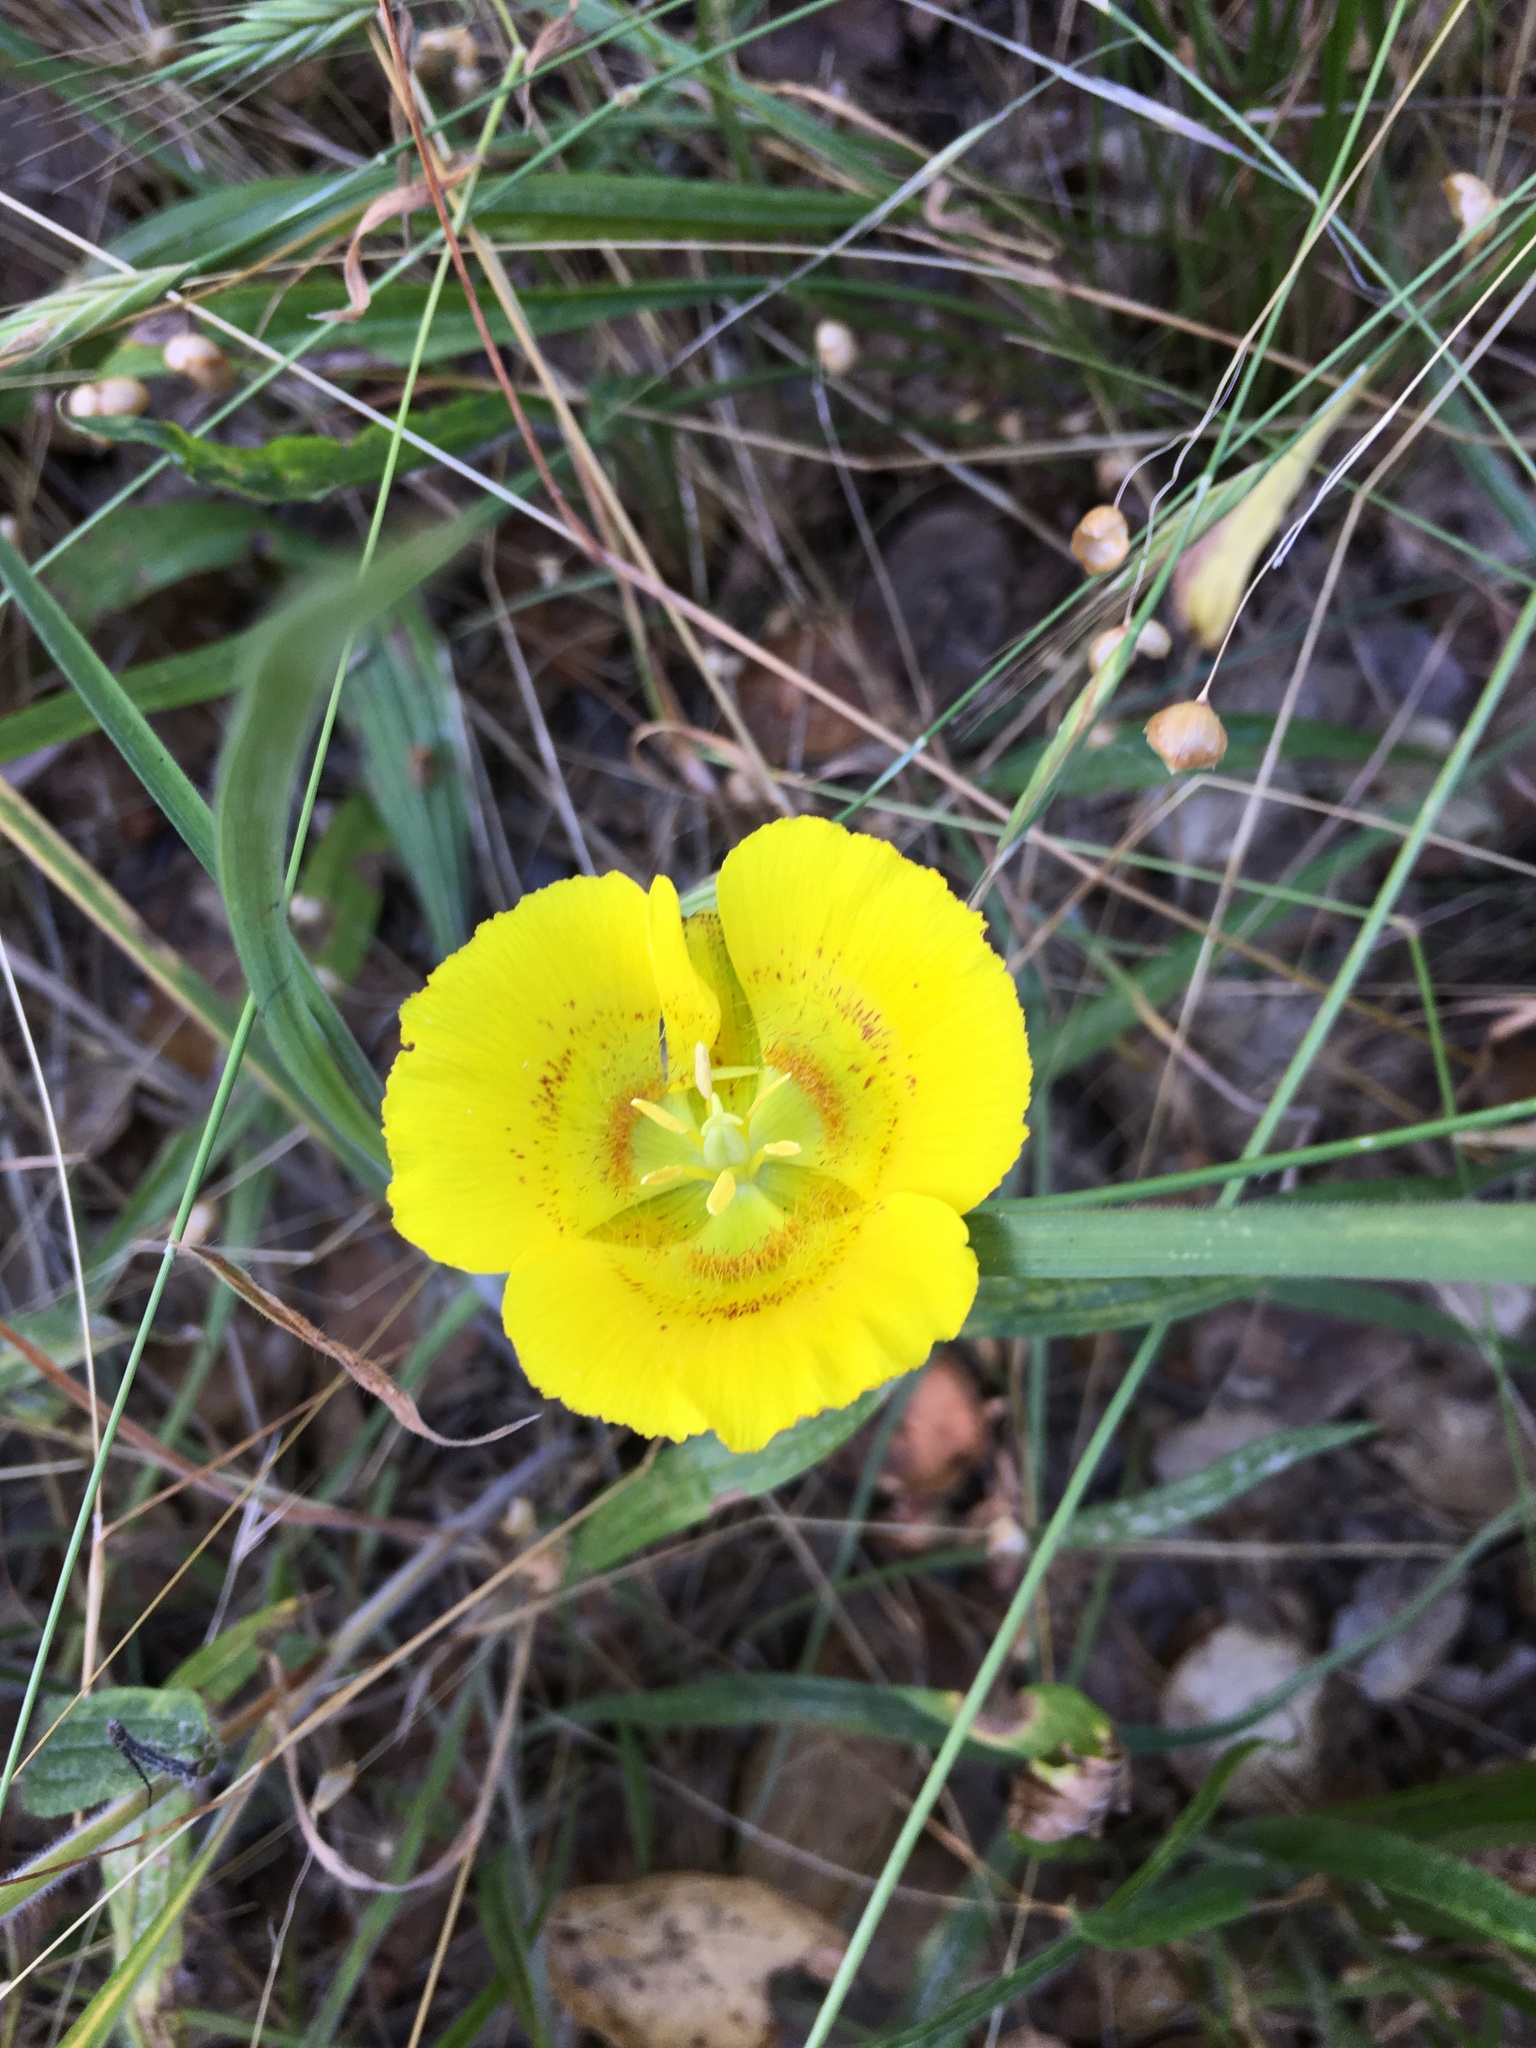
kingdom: Plantae
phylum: Tracheophyta
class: Liliopsida
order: Liliales
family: Liliaceae
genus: Calochortus
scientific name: Calochortus luteus
